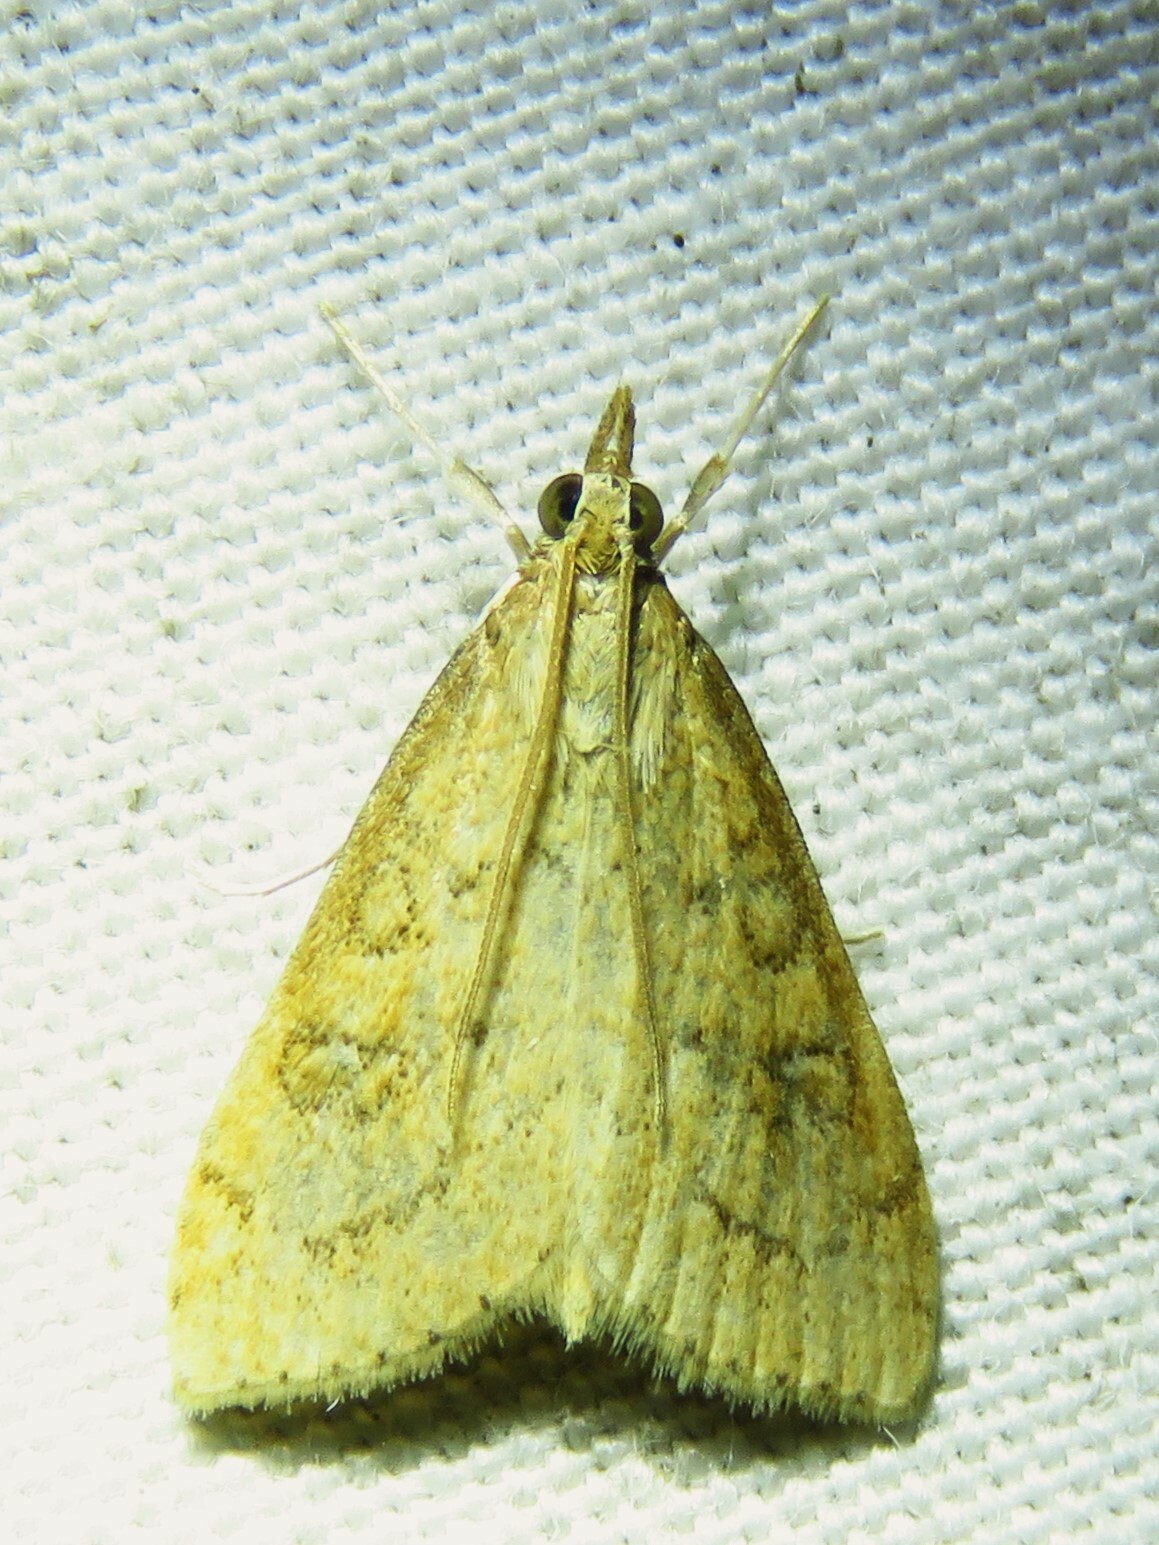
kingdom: Animalia
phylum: Arthropoda
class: Insecta
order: Lepidoptera
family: Crambidae
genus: Udea
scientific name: Udea rubigalis
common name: Celery leaftier moth
